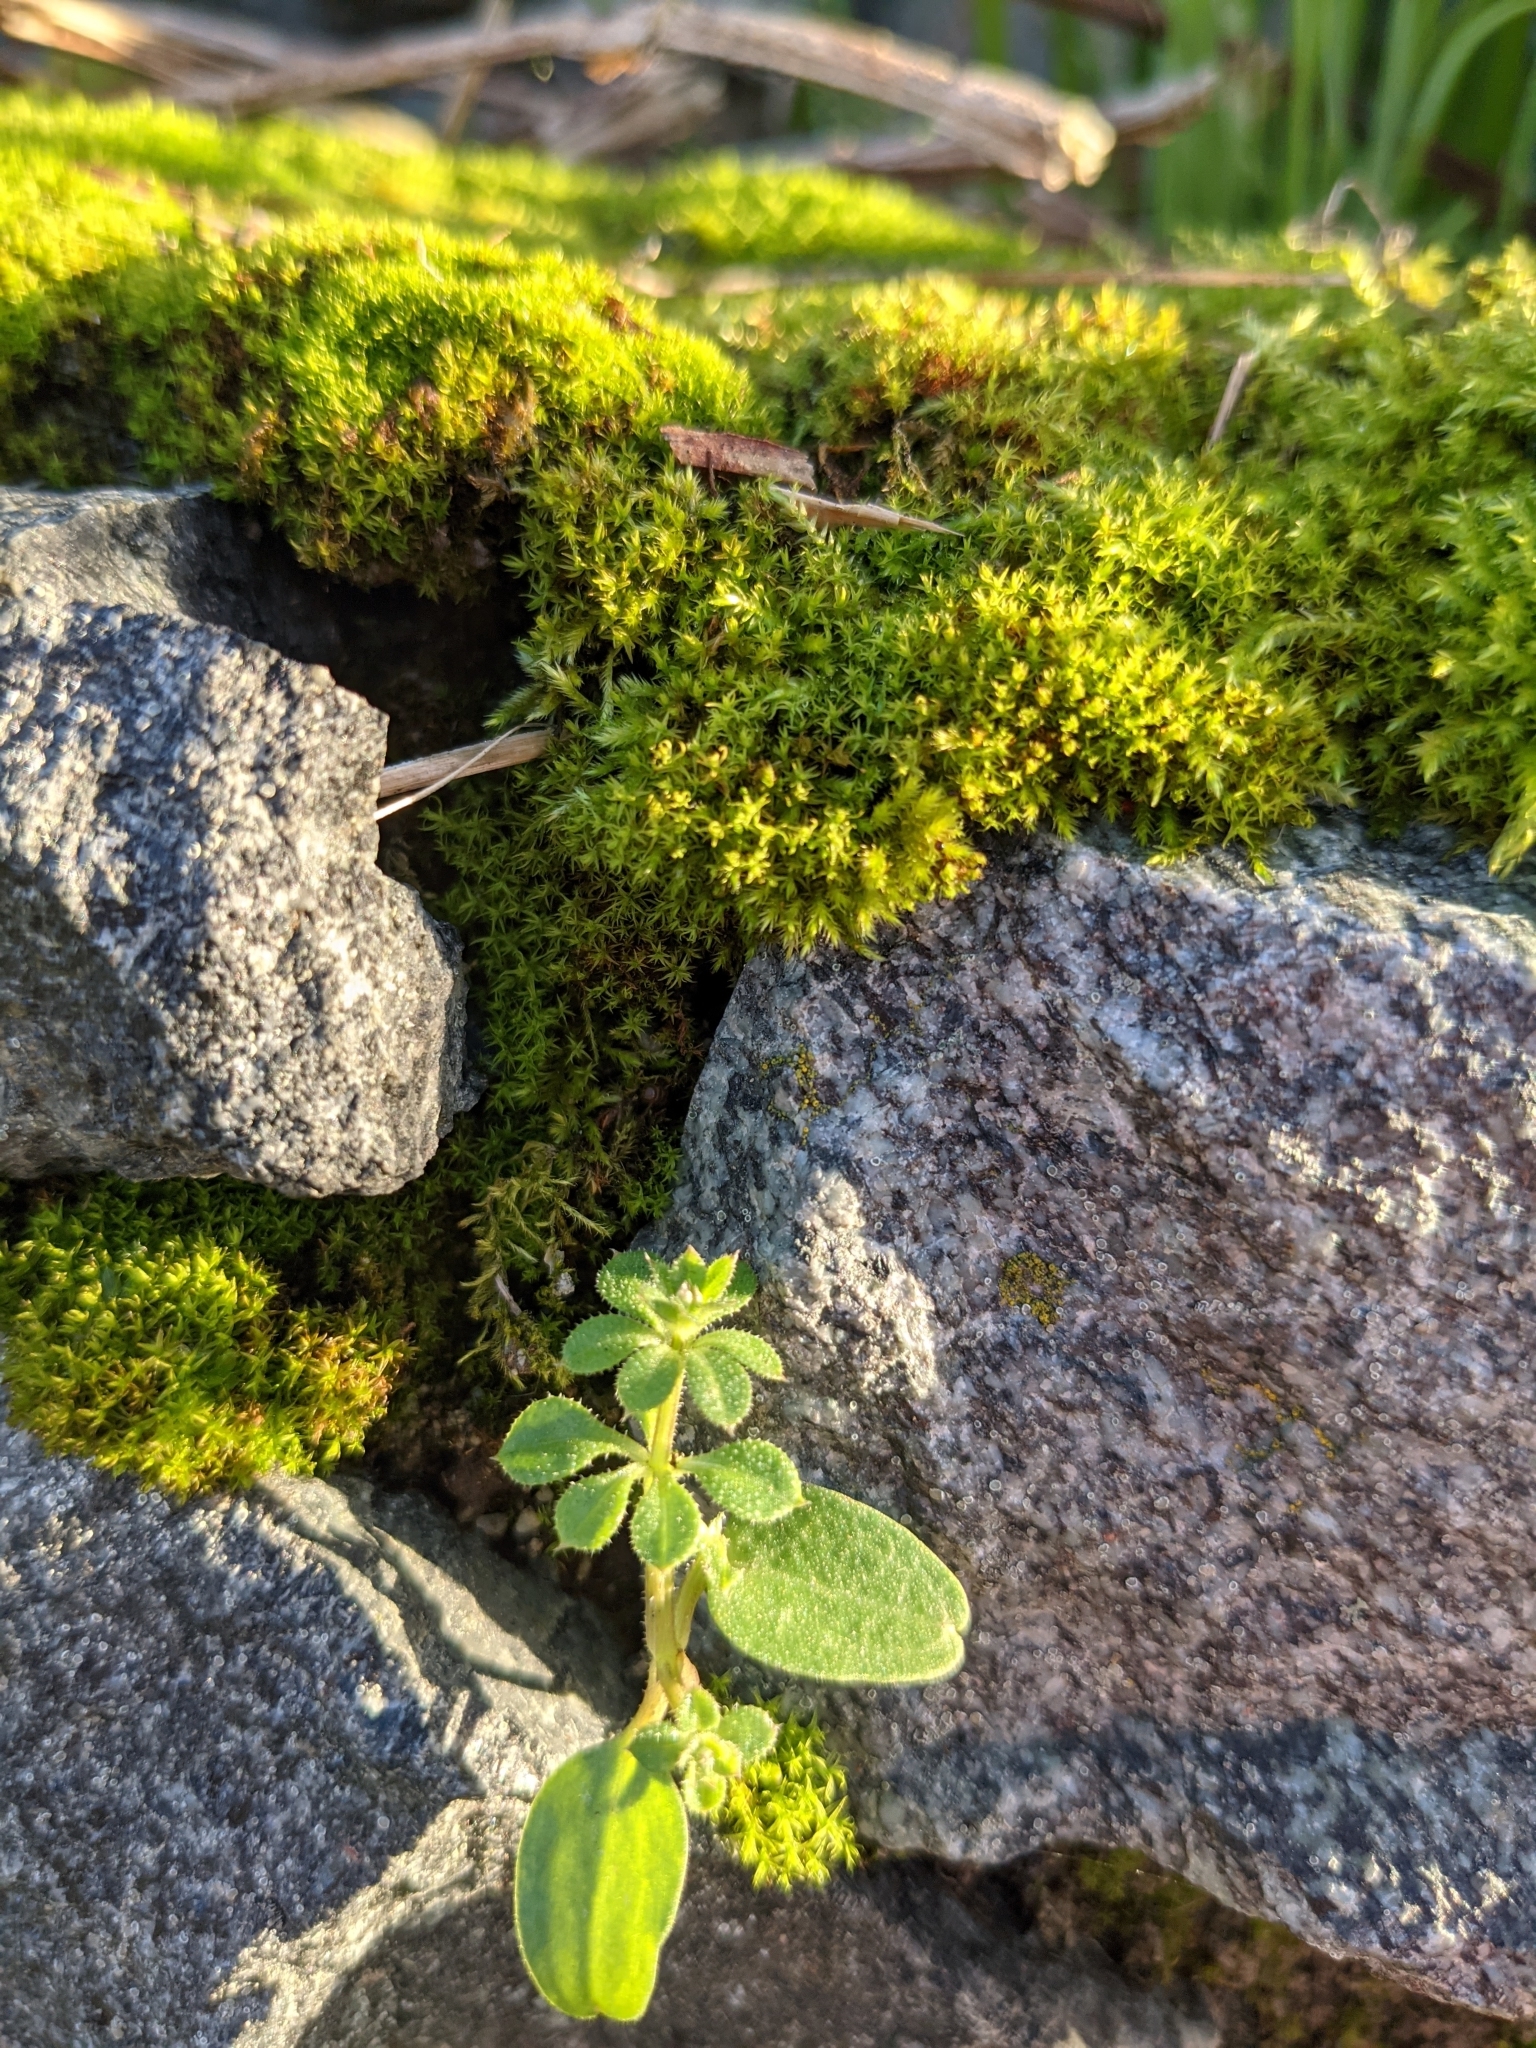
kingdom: Plantae
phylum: Tracheophyta
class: Magnoliopsida
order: Gentianales
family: Rubiaceae
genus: Galium
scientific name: Galium aparine
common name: Cleavers
